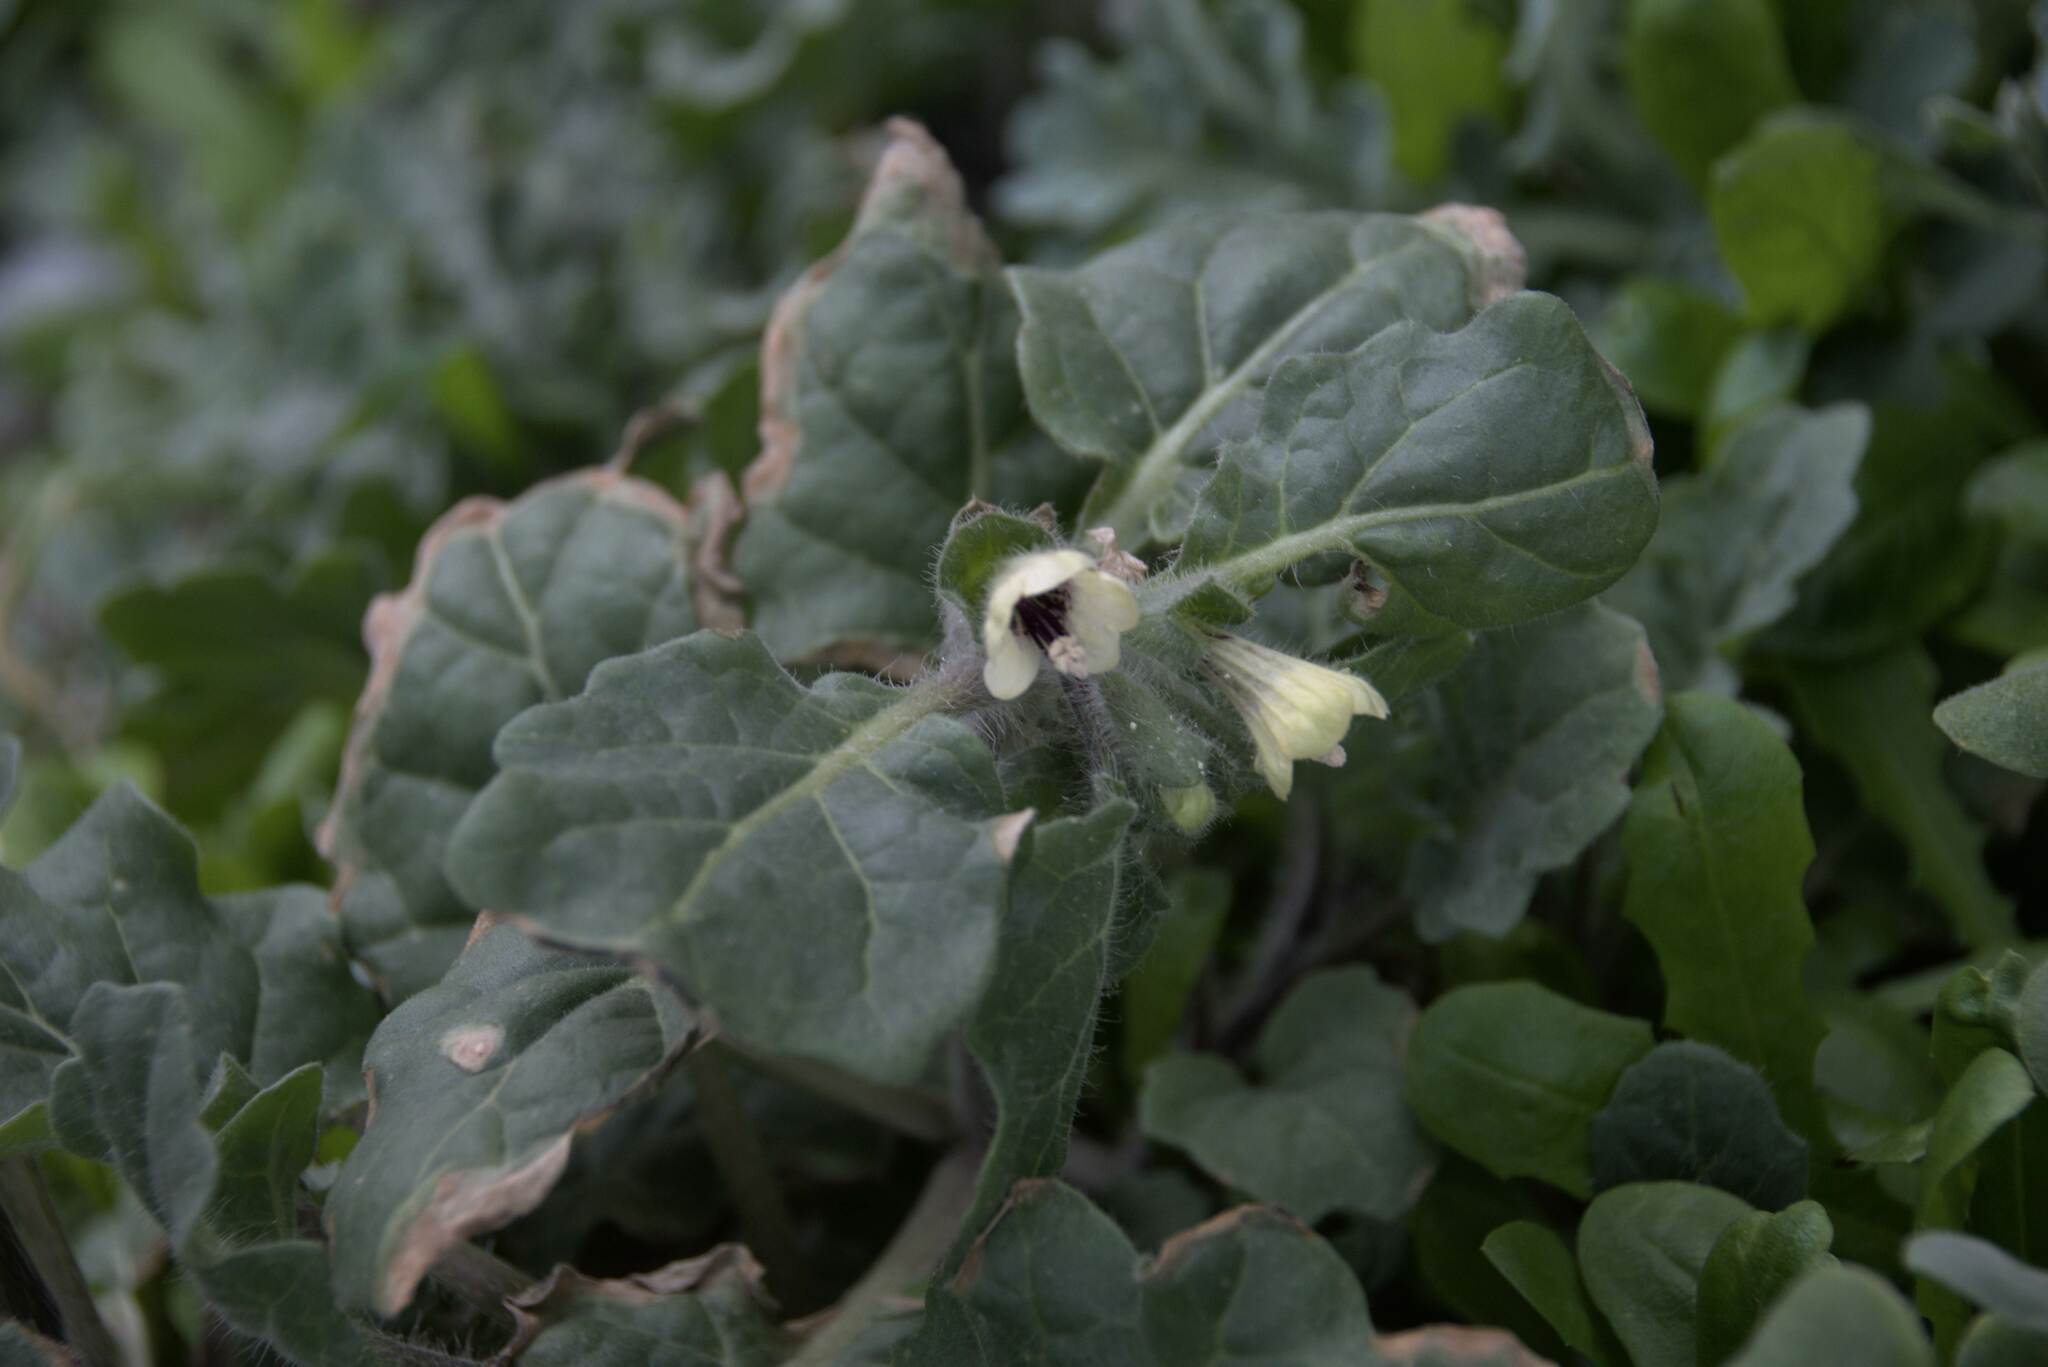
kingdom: Plantae
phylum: Tracheophyta
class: Magnoliopsida
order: Solanales
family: Solanaceae
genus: Hyoscyamus
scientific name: Hyoscyamus albus
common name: White henbane
